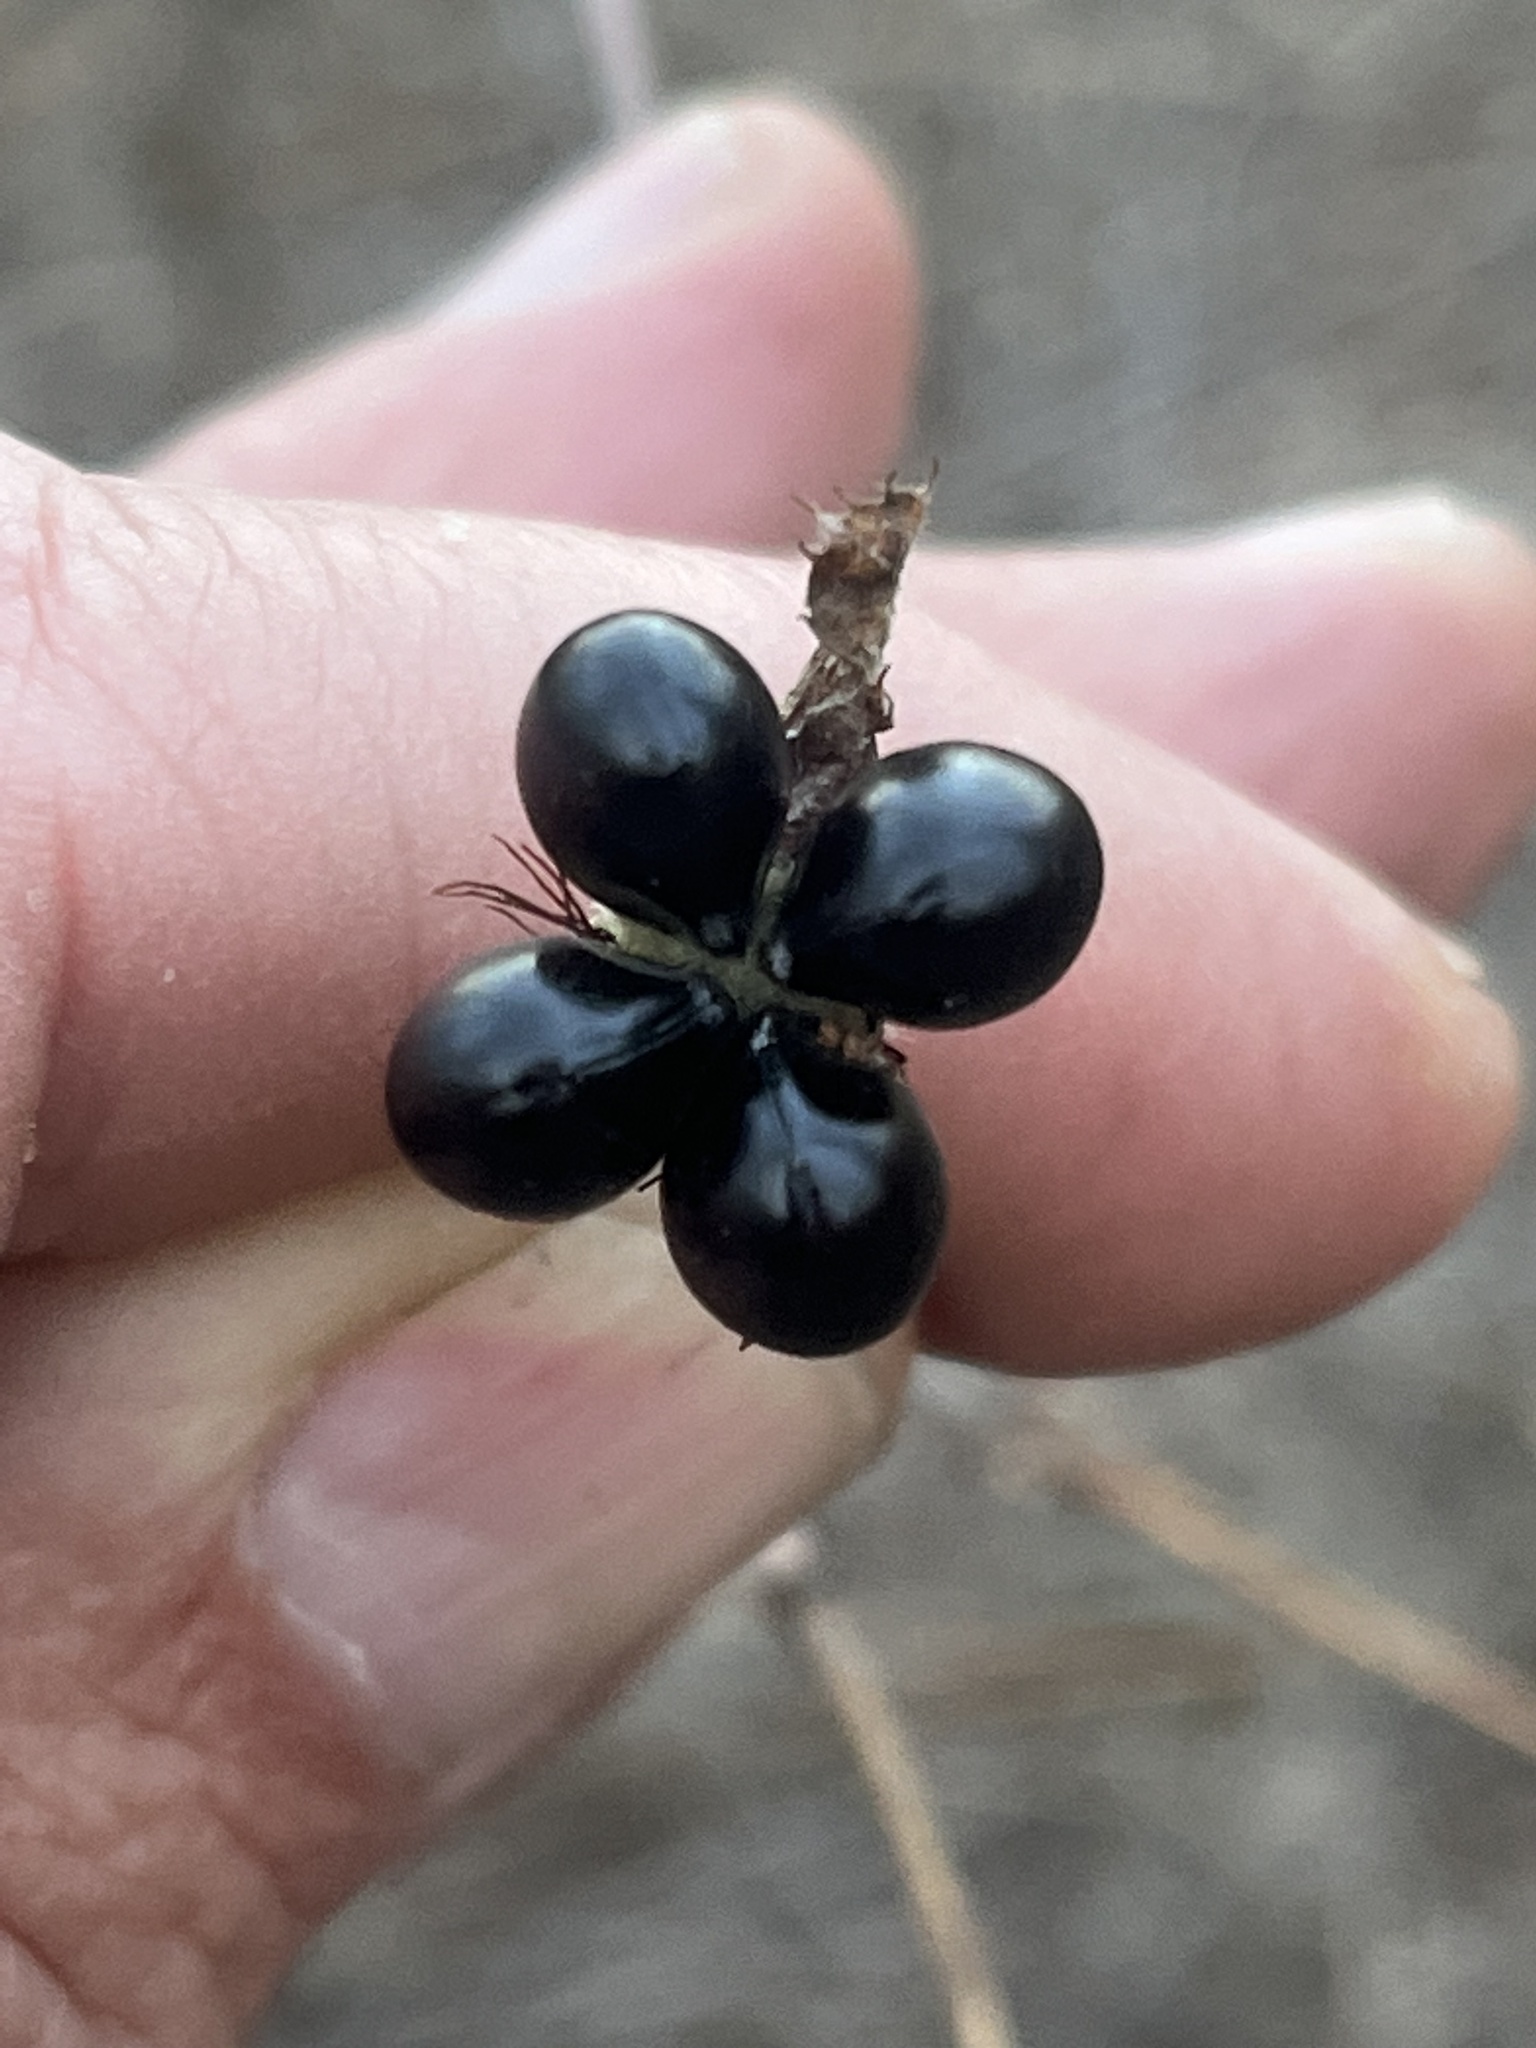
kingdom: Plantae
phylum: Tracheophyta
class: Magnoliopsida
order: Rosales
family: Rosaceae
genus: Rhodotypos
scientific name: Rhodotypos scandens
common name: Jetbead
